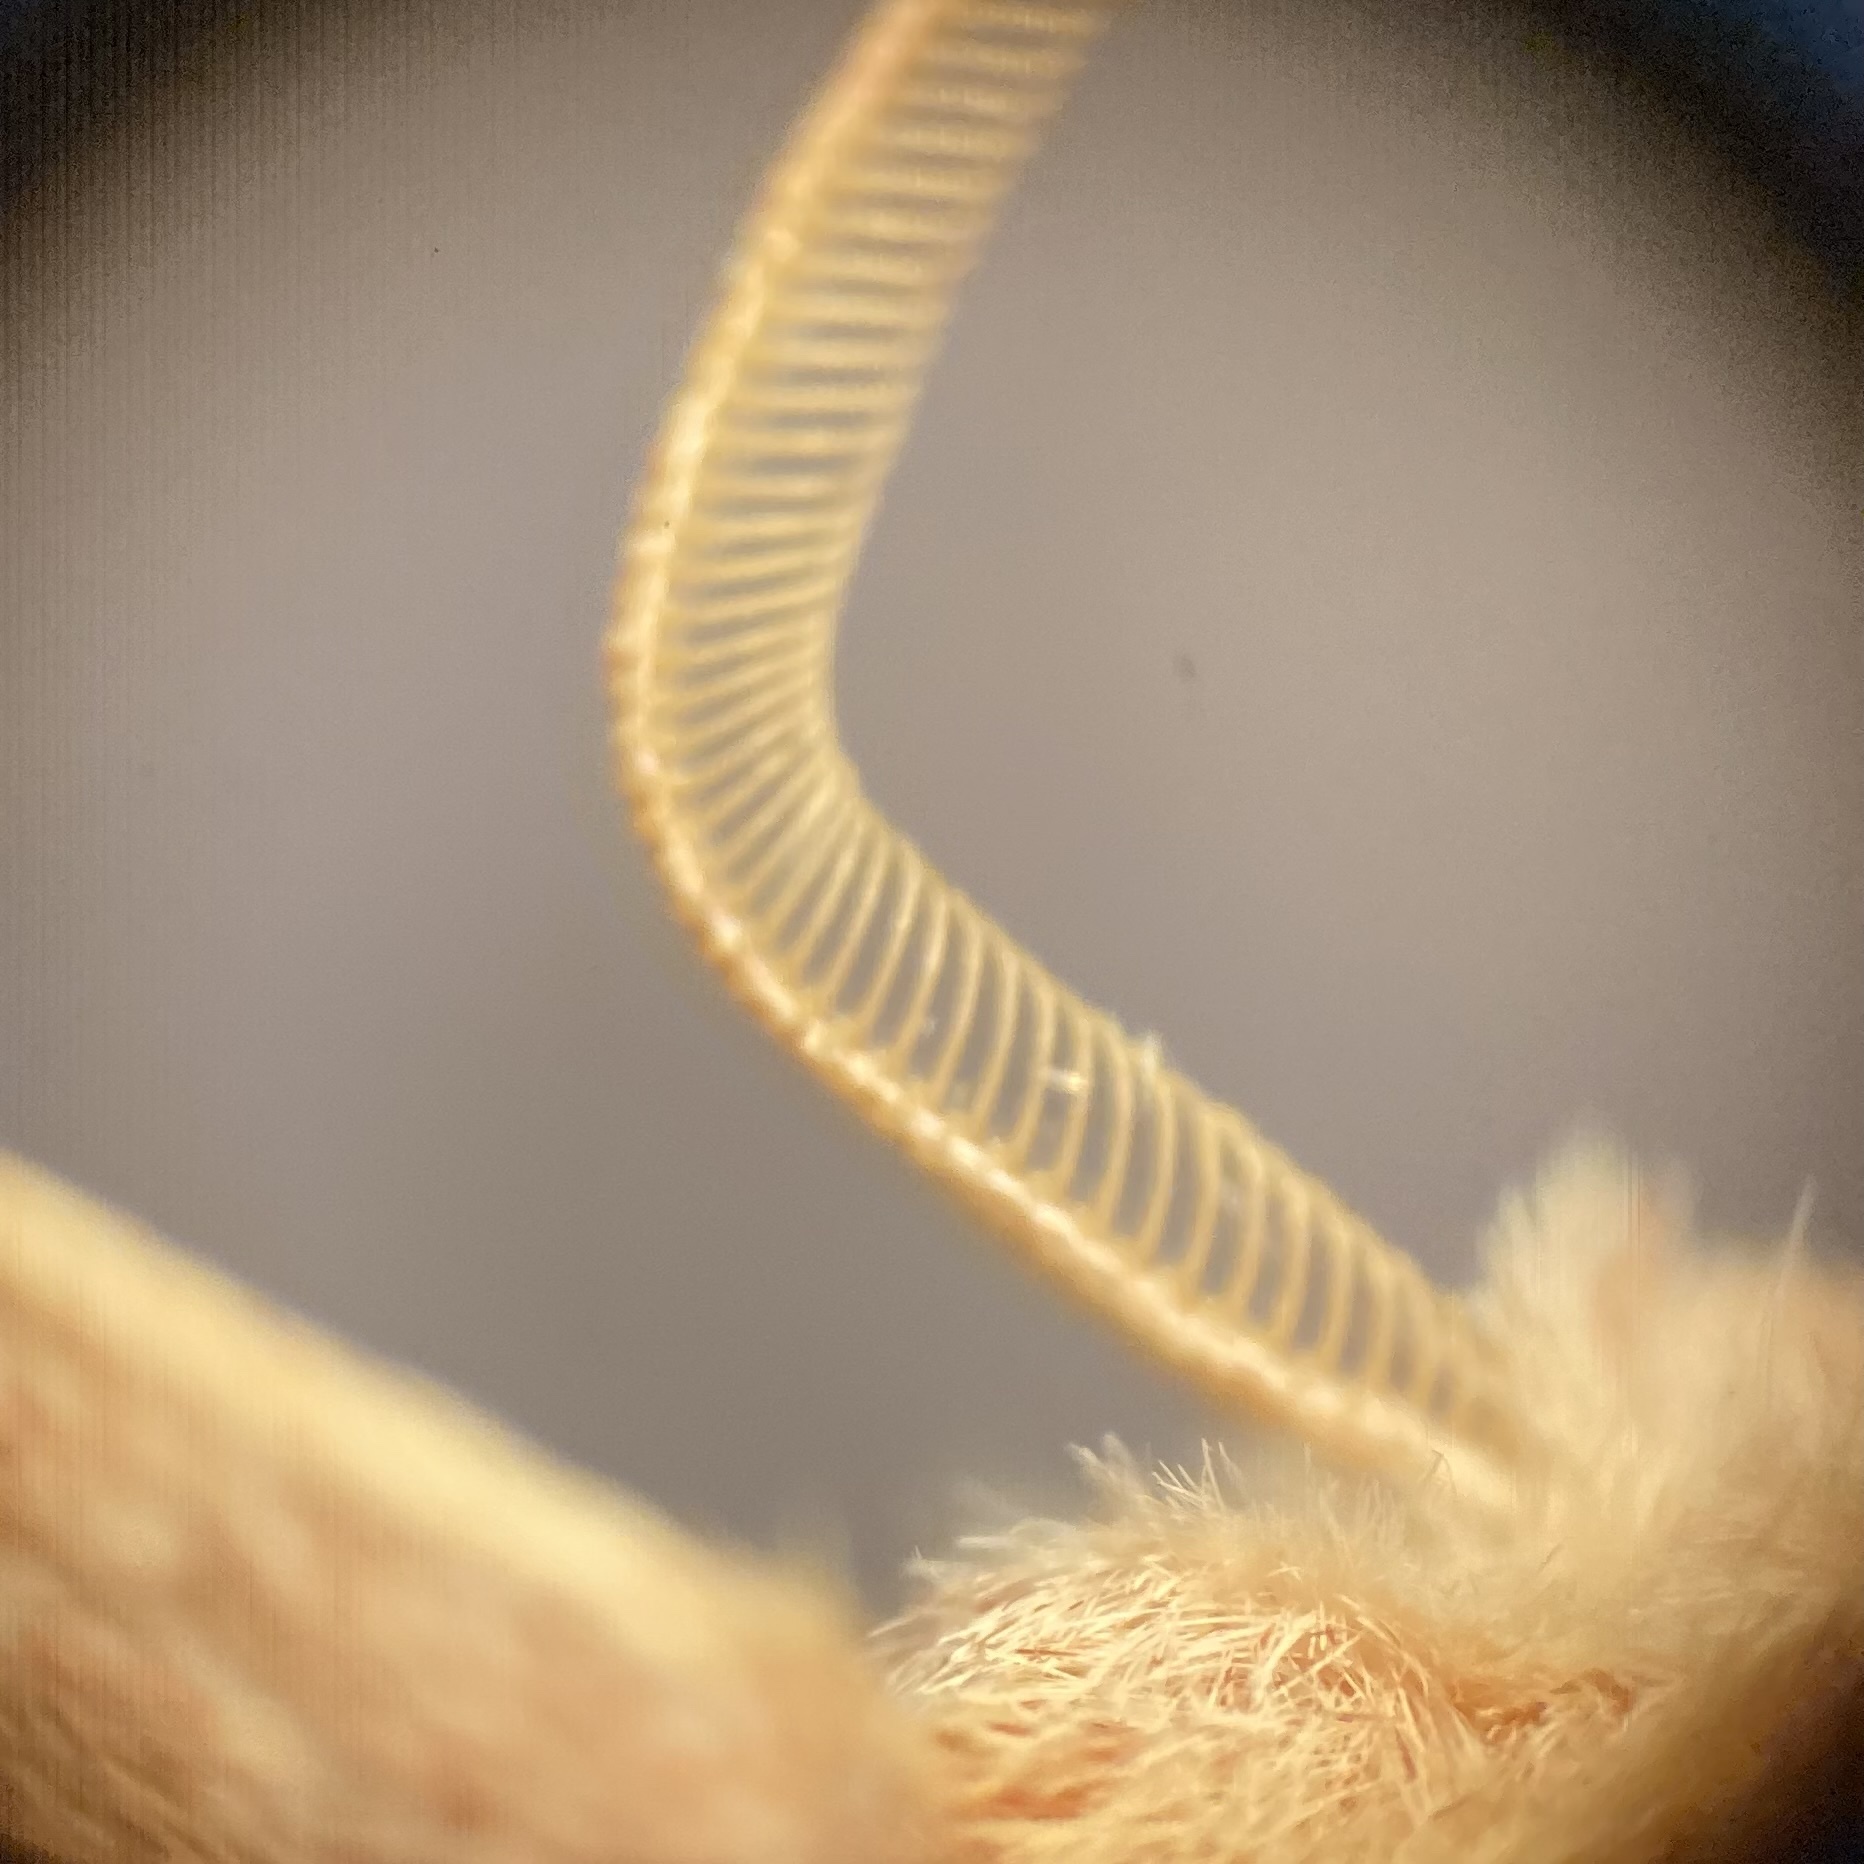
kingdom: Animalia
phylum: Arthropoda
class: Insecta
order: Lepidoptera
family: Notodontidae
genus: Nadata
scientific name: Nadata gibbosa
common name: White-dotted prominent
